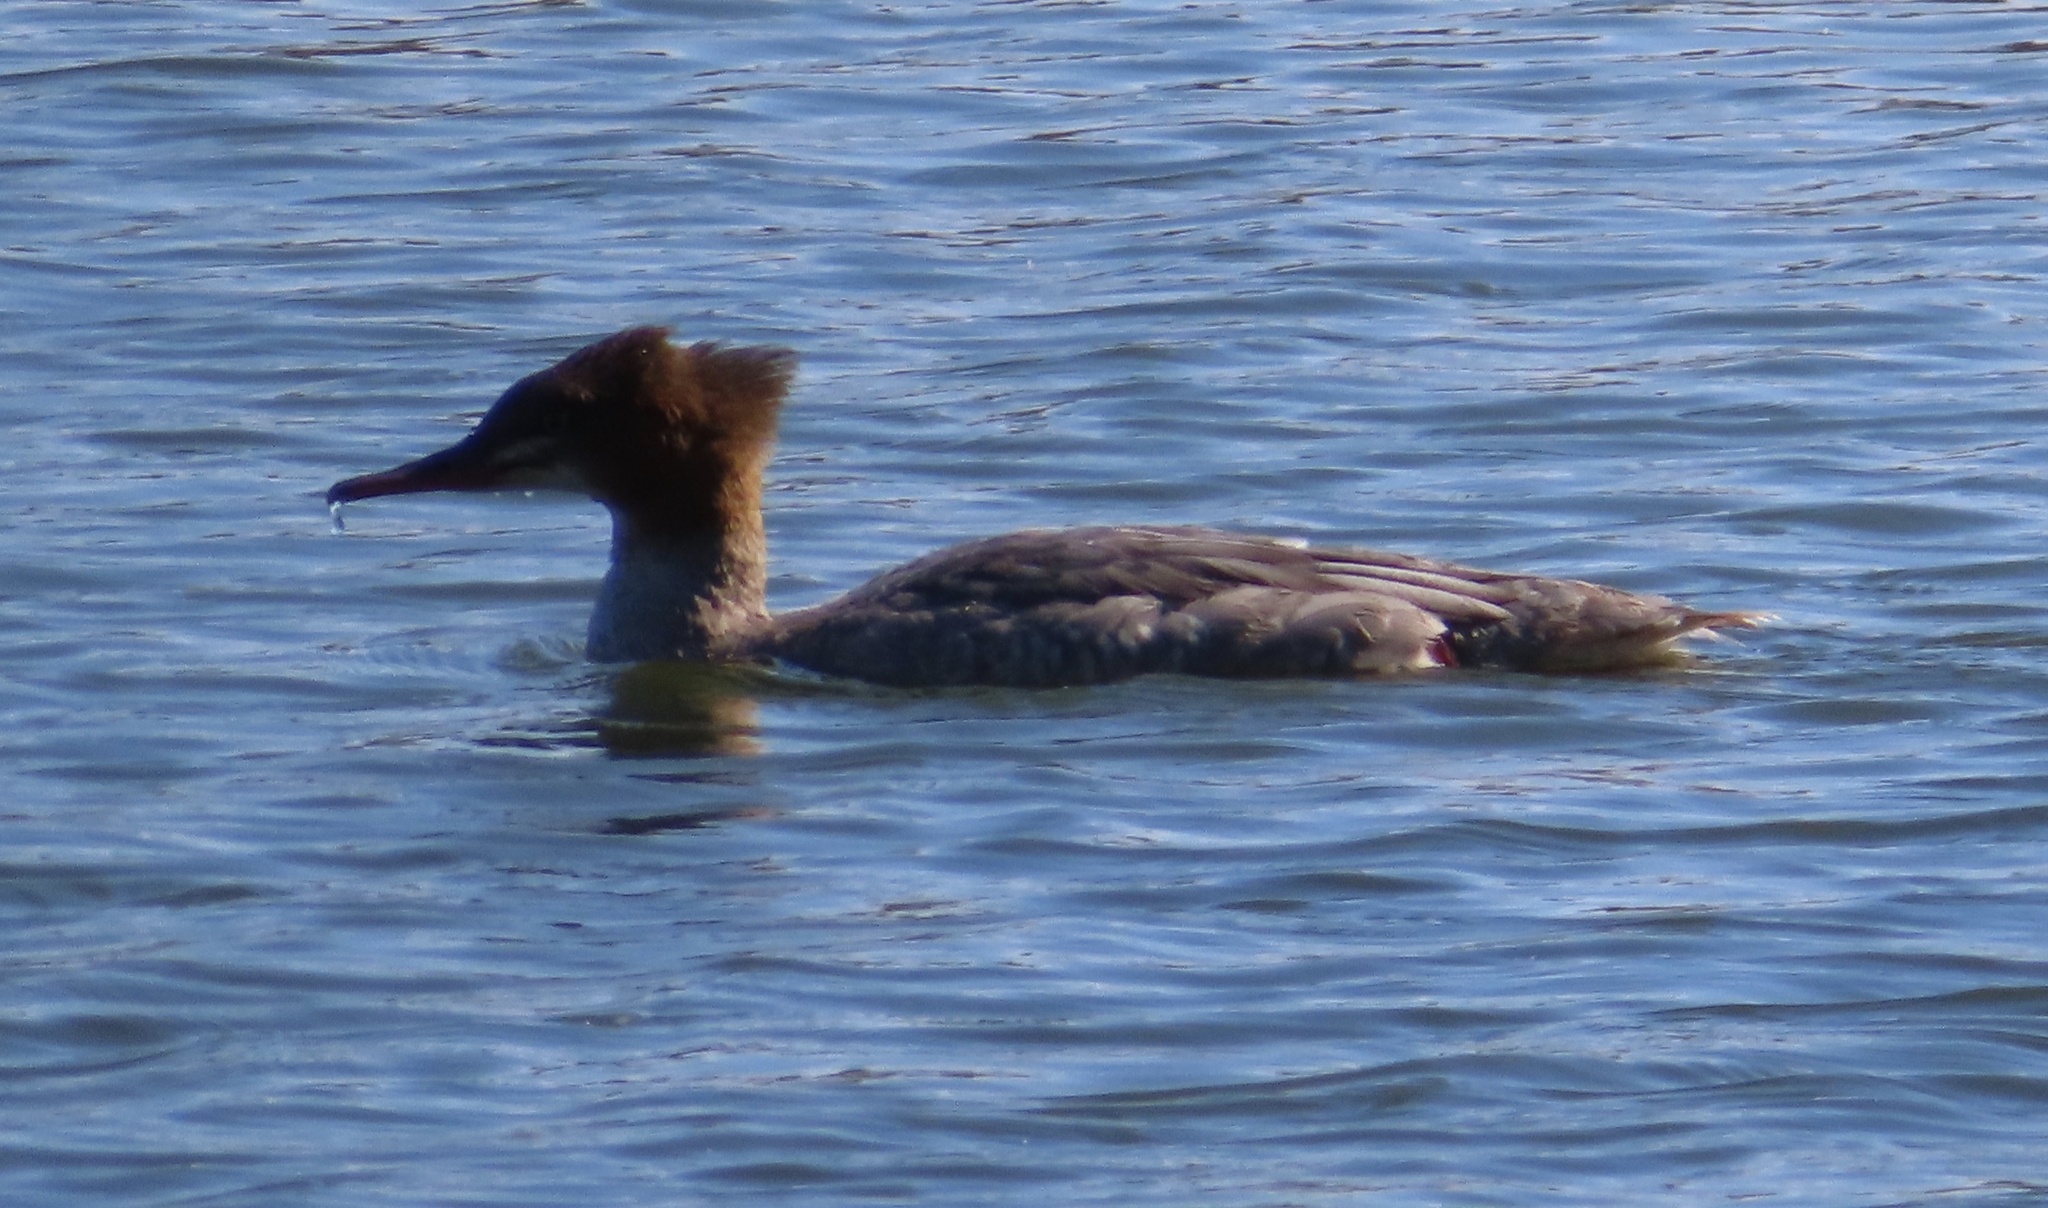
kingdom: Animalia
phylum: Chordata
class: Aves
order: Anseriformes
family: Anatidae
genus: Mergus
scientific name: Mergus merganser
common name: Common merganser
